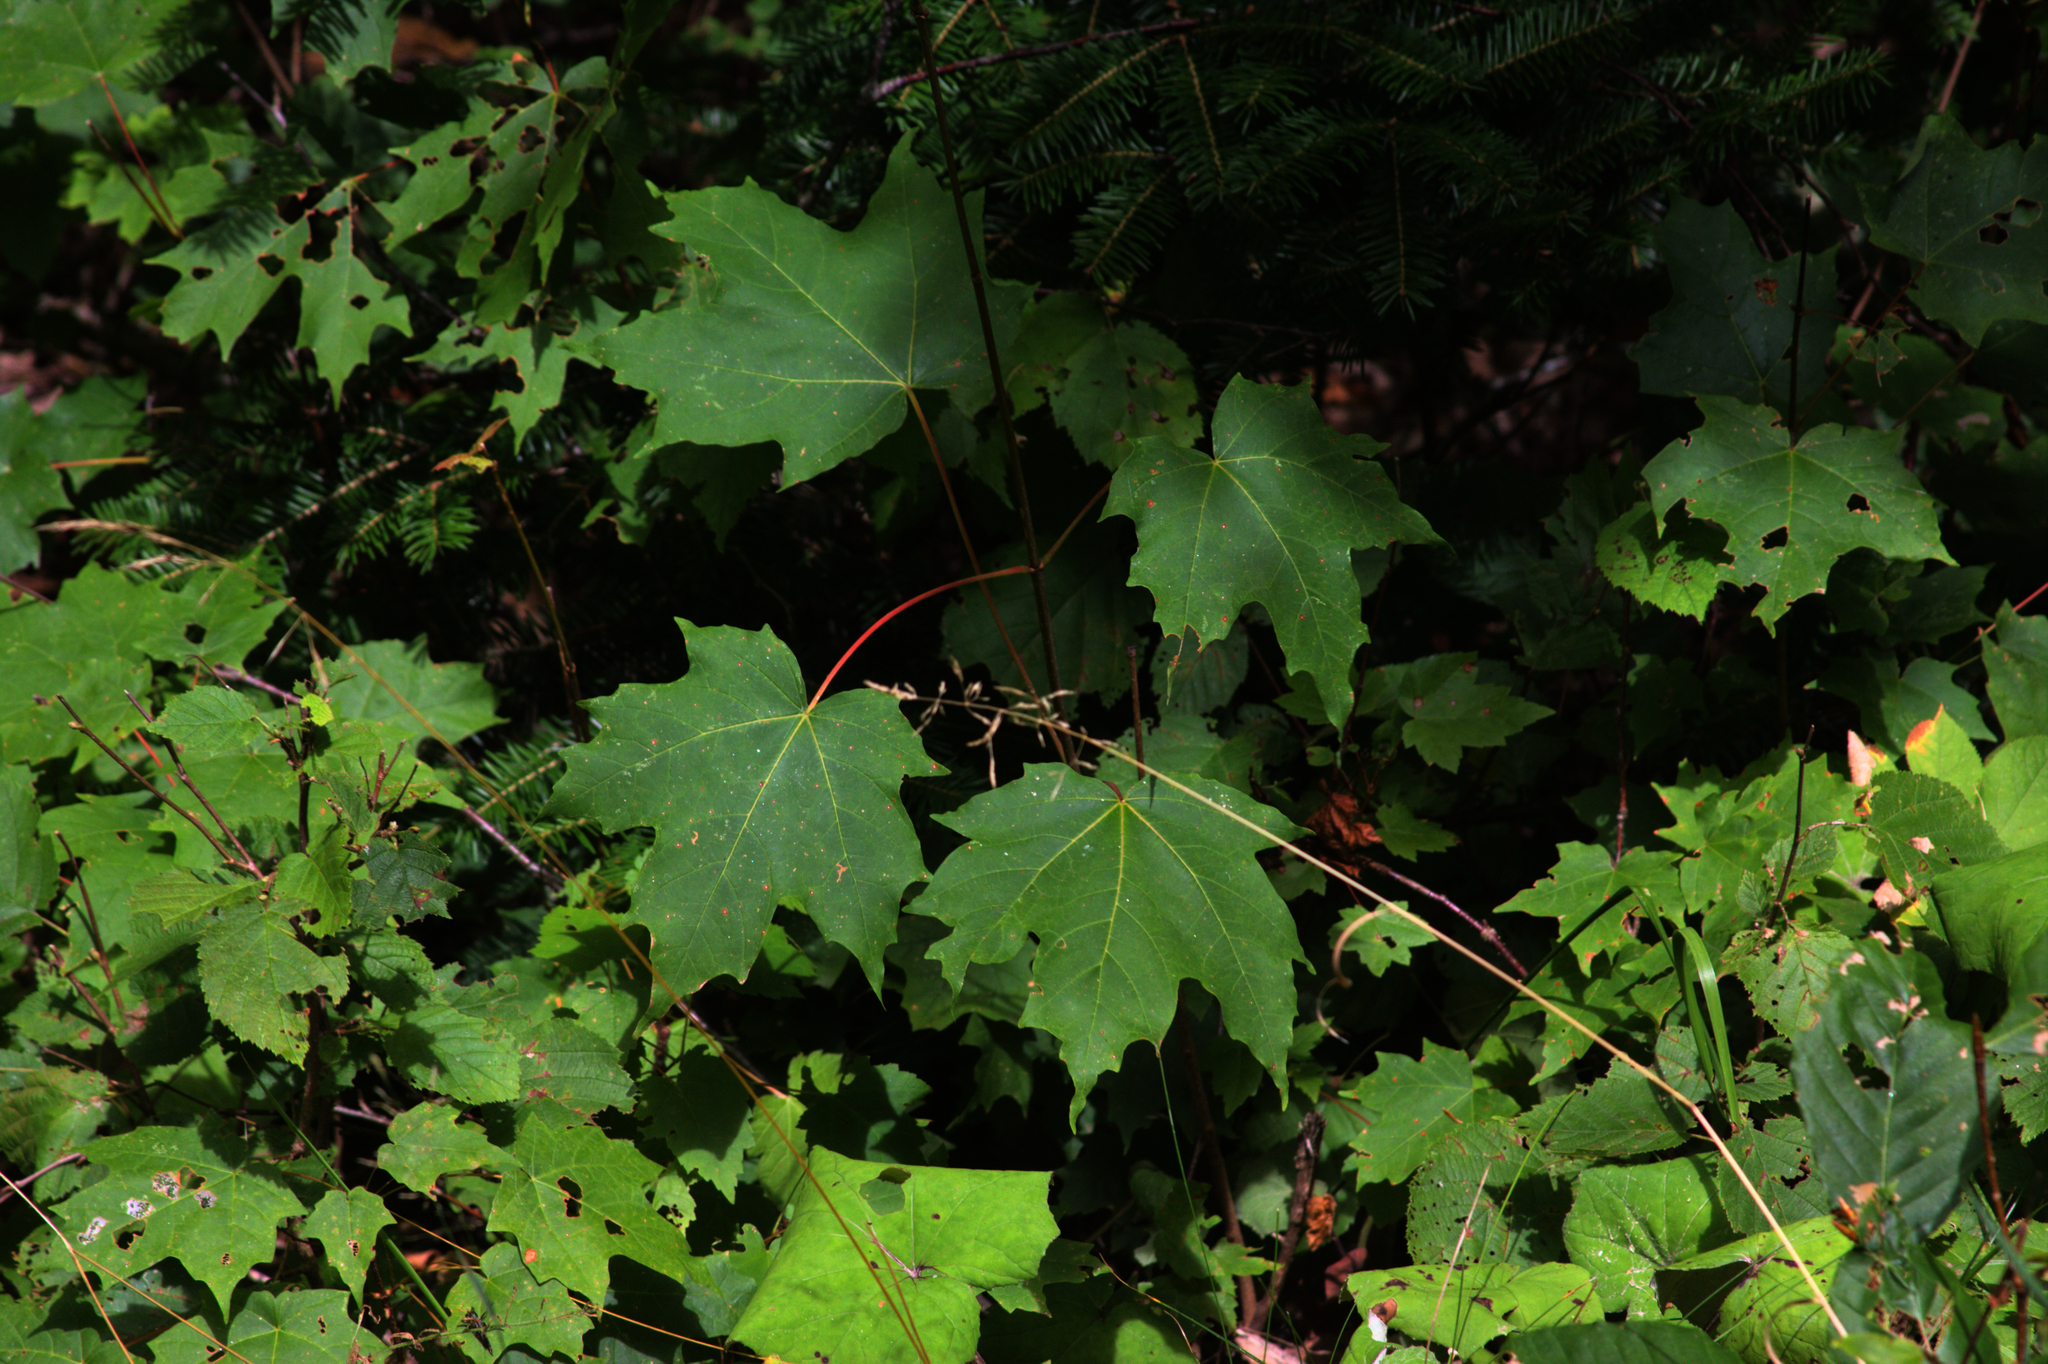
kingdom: Plantae
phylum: Tracheophyta
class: Magnoliopsida
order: Sapindales
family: Sapindaceae
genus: Acer
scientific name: Acer saccharum
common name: Sugar maple
